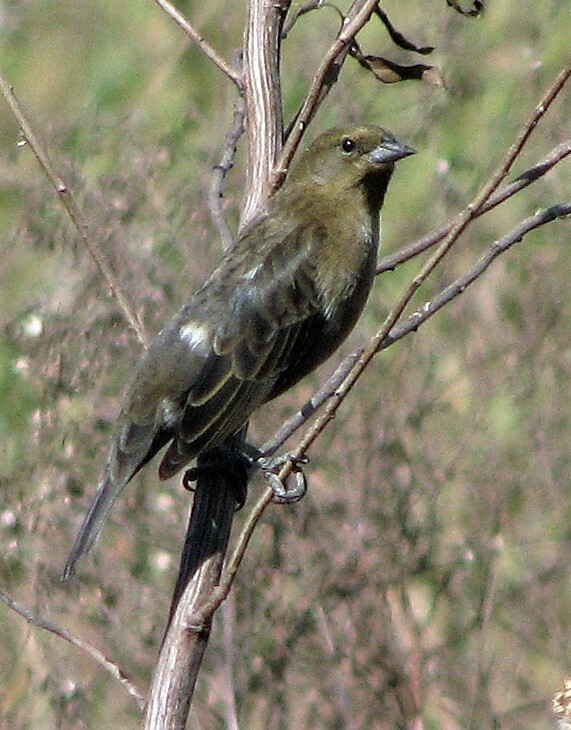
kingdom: Animalia
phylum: Chordata
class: Aves
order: Passeriformes
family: Icteridae
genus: Chrysomus
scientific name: Chrysomus ruficapillus
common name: Chestnut-capped blackbird
